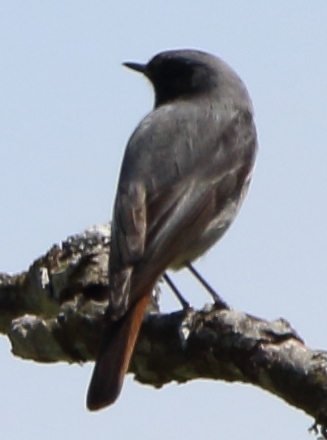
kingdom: Animalia
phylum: Chordata
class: Aves
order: Passeriformes
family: Muscicapidae
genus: Phoenicurus
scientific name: Phoenicurus ochruros
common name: Black redstart
